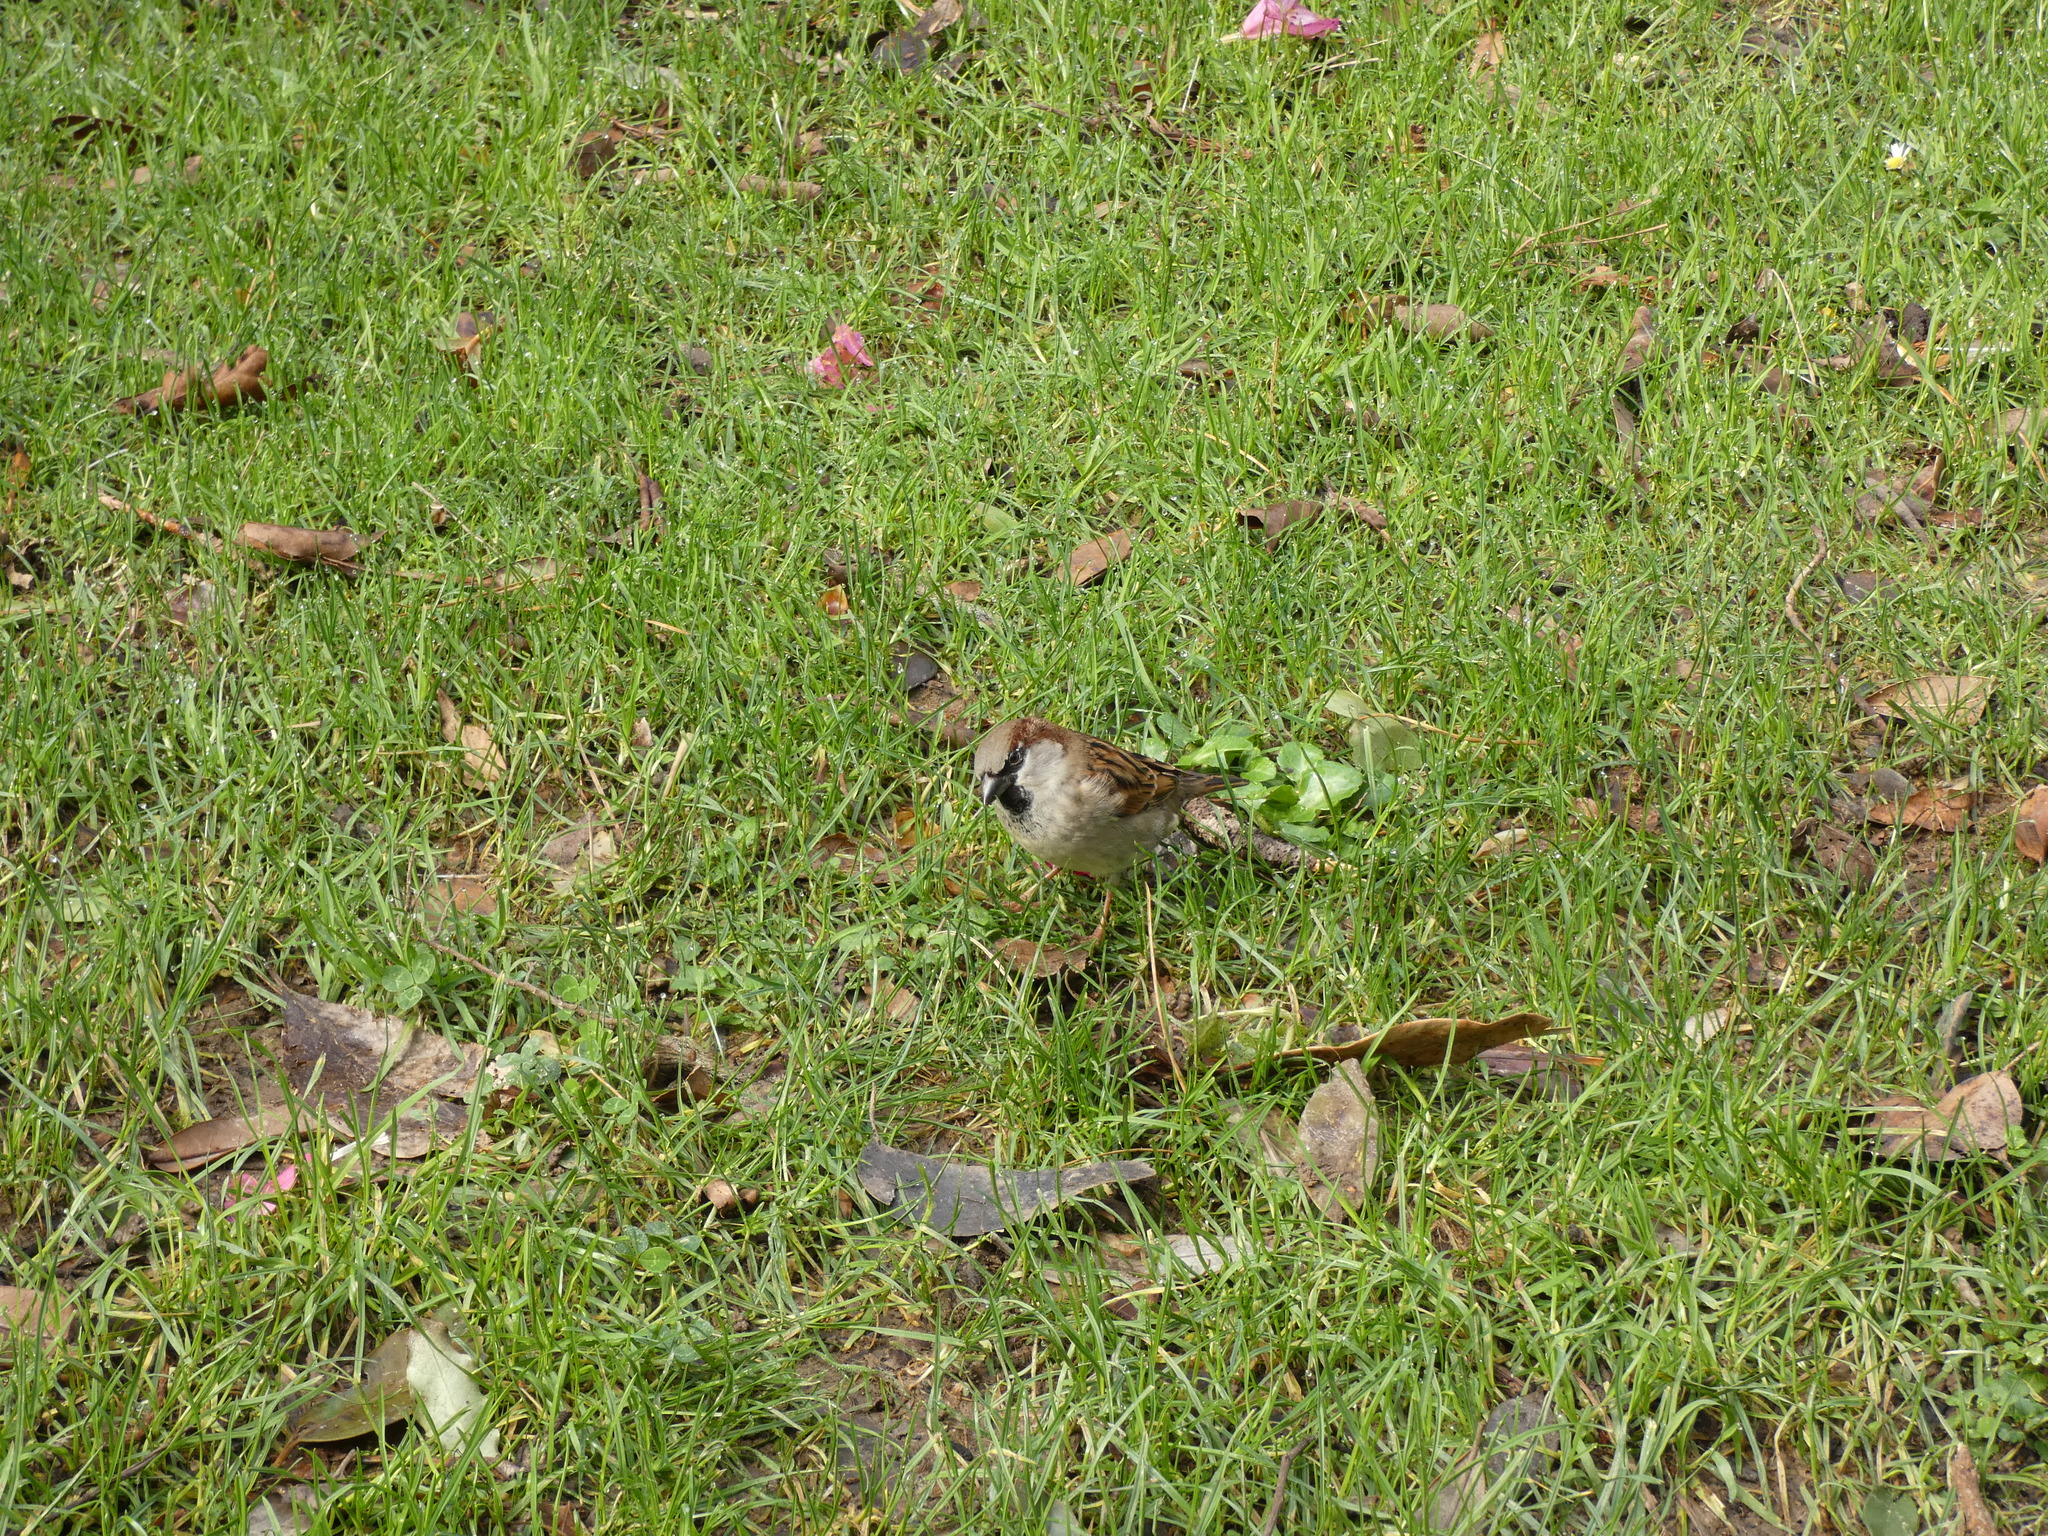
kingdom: Animalia
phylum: Chordata
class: Aves
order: Passeriformes
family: Passeridae
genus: Passer
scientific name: Passer domesticus
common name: House sparrow
